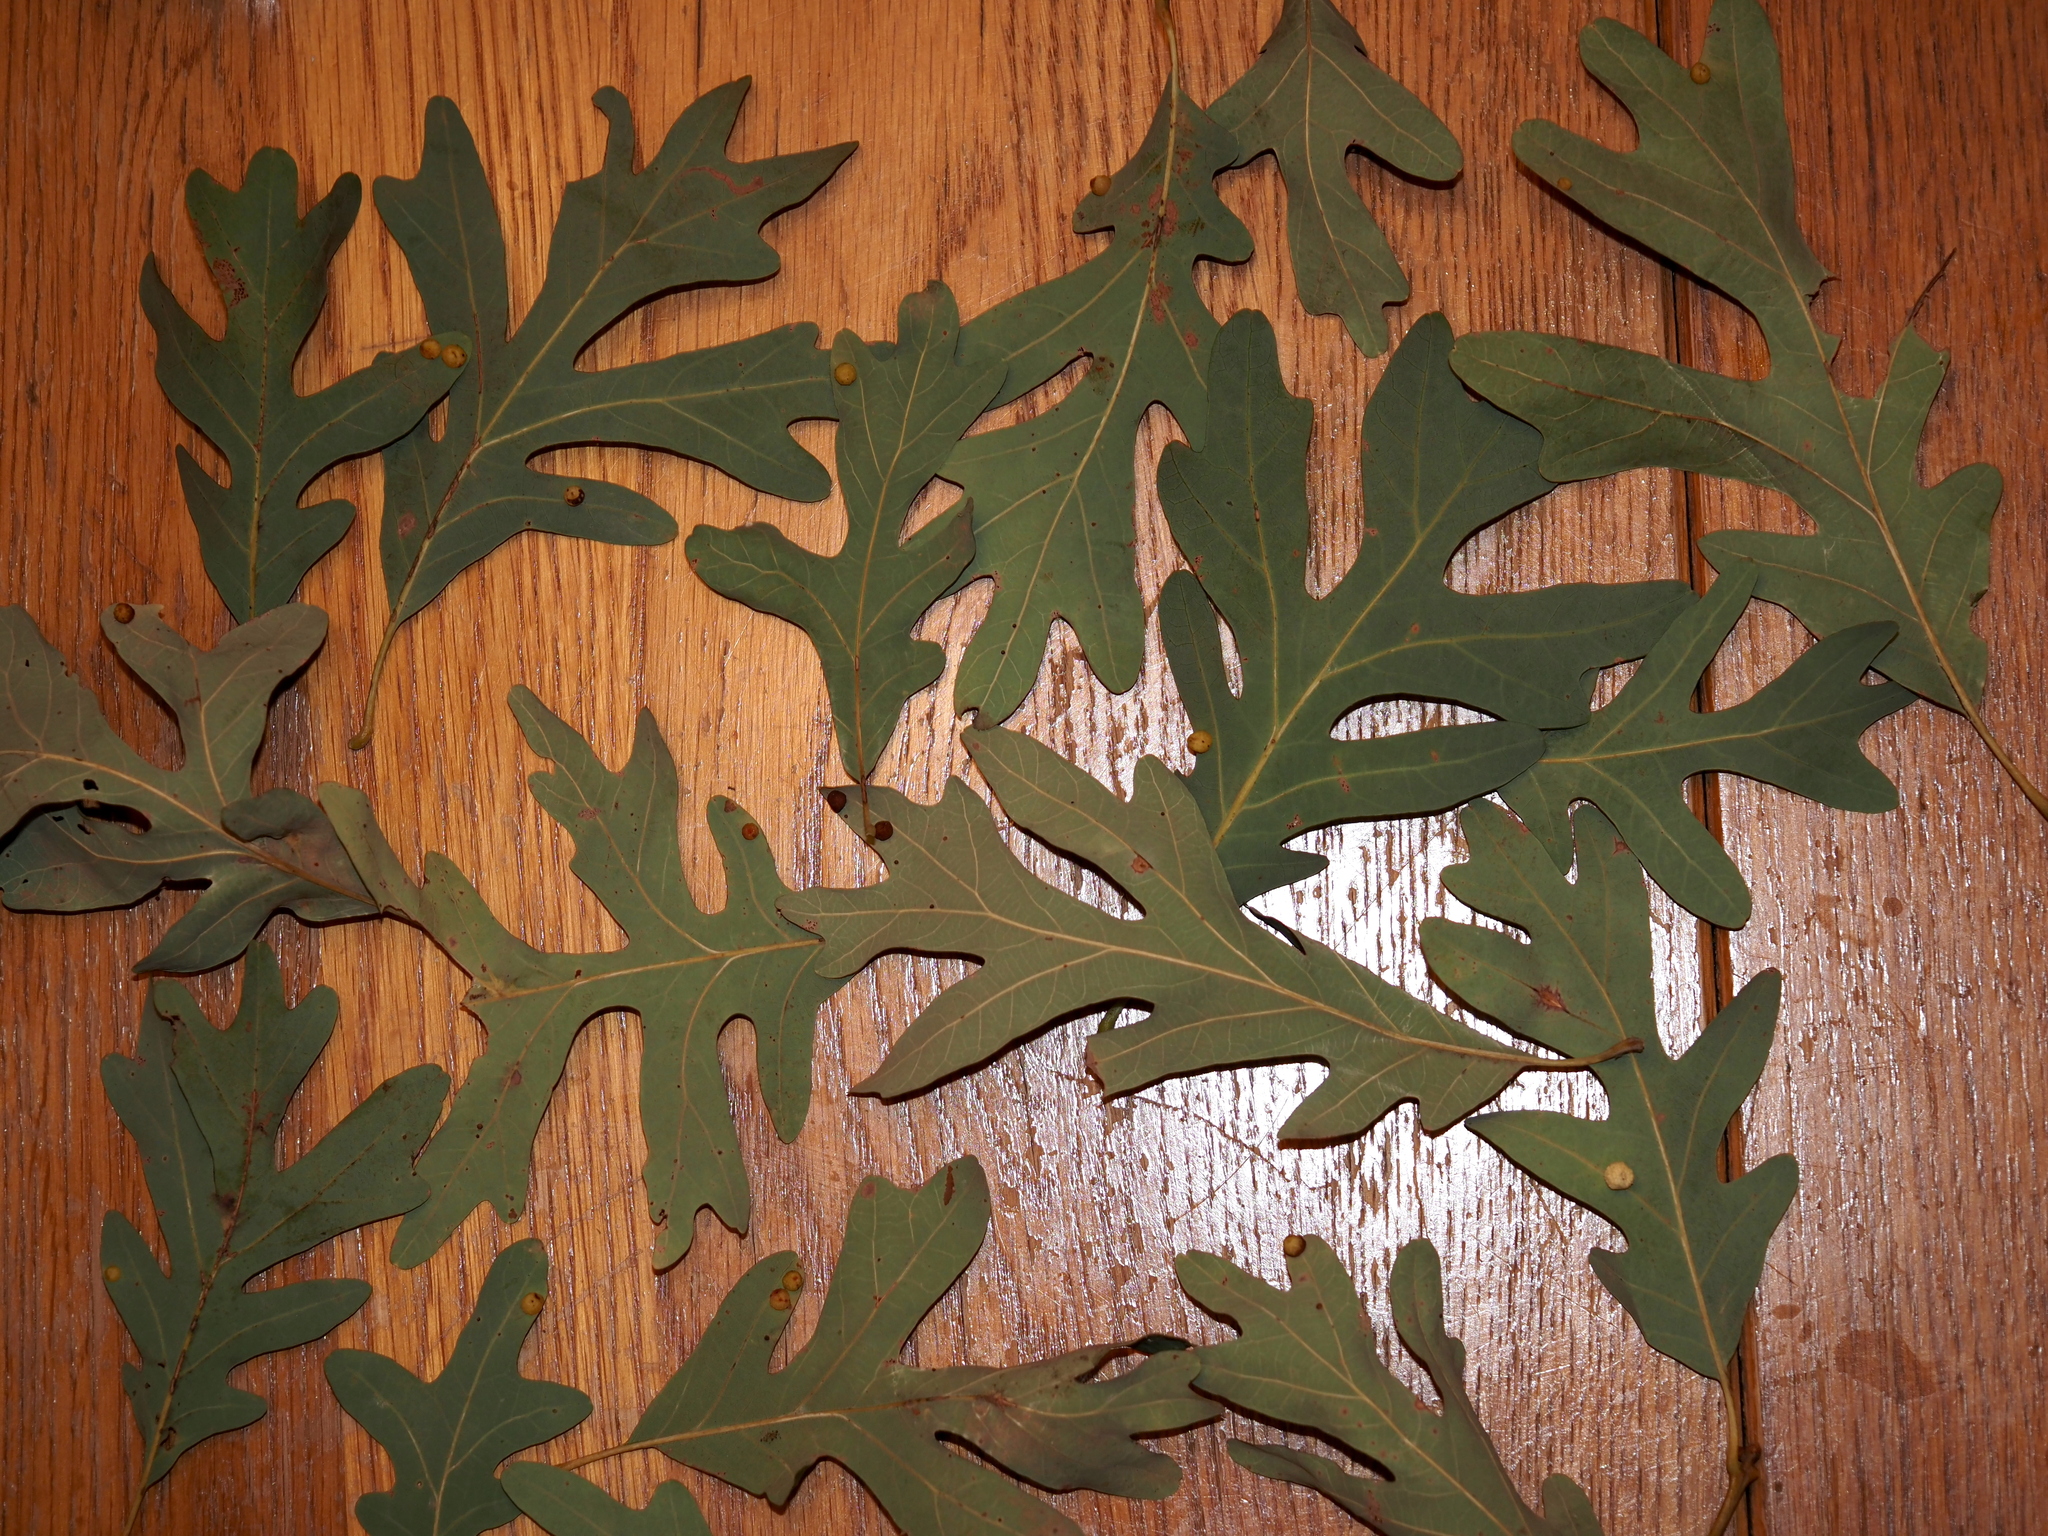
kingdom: Animalia
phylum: Arthropoda
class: Insecta
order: Hymenoptera
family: Cynipidae
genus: Andricus
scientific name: Andricus
